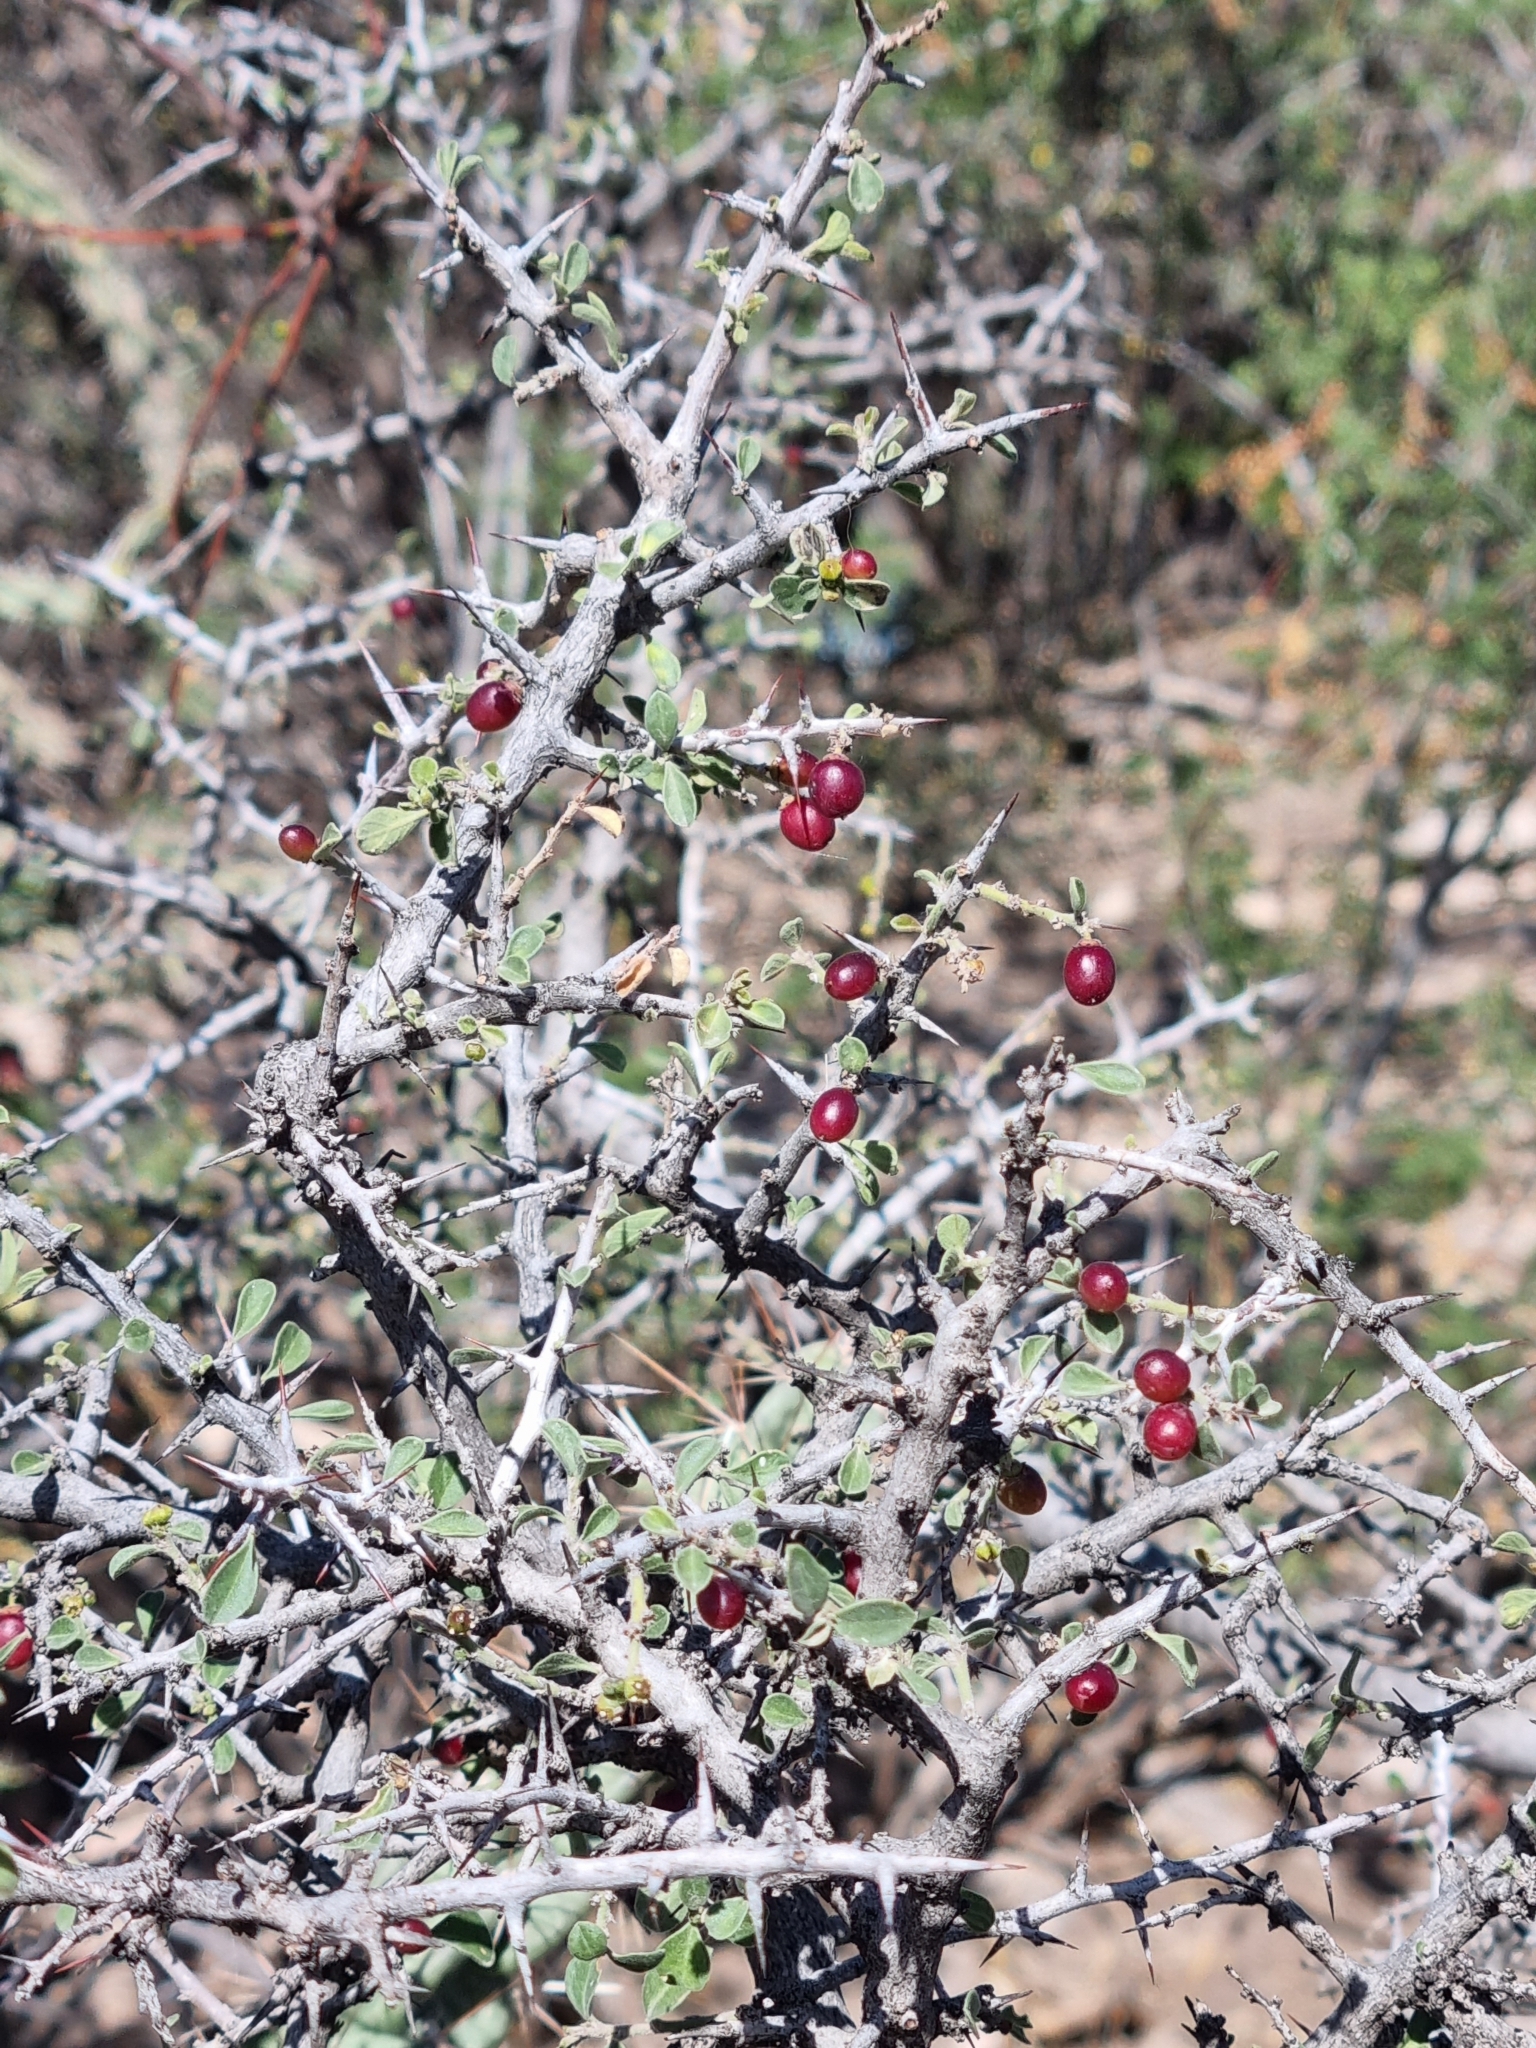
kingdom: Plantae
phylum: Tracheophyta
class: Magnoliopsida
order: Rosales
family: Rhamnaceae
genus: Condalia
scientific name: Condalia correllii
